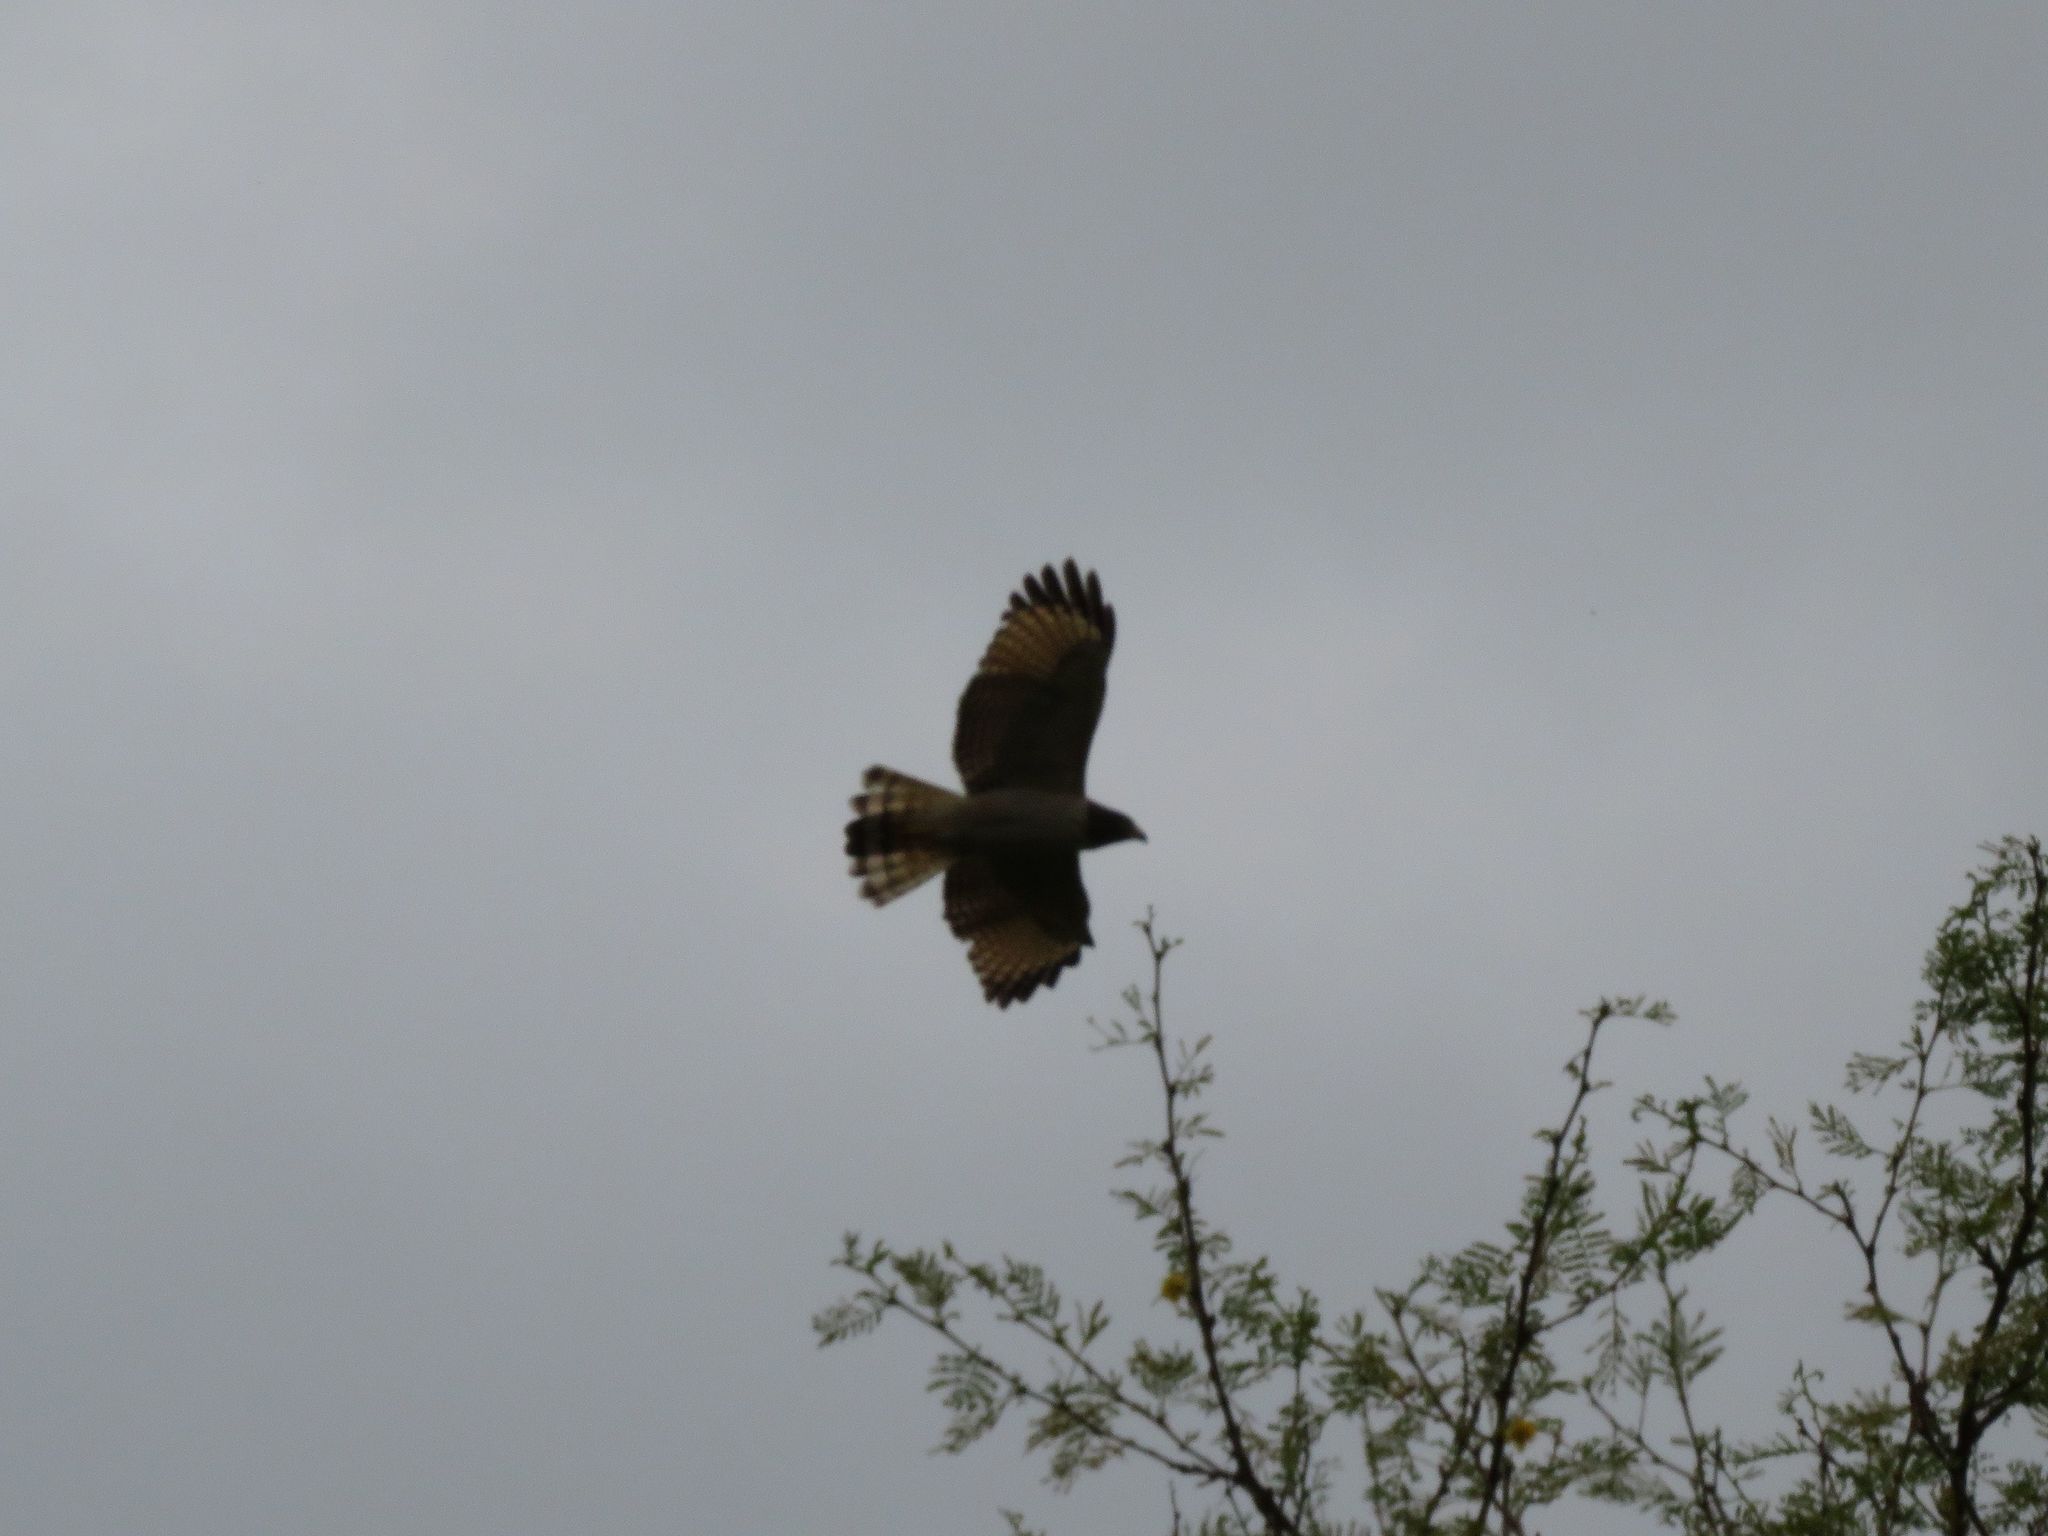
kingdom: Animalia
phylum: Chordata
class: Aves
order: Accipitriformes
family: Accipitridae
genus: Rupornis
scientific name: Rupornis magnirostris
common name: Roadside hawk
